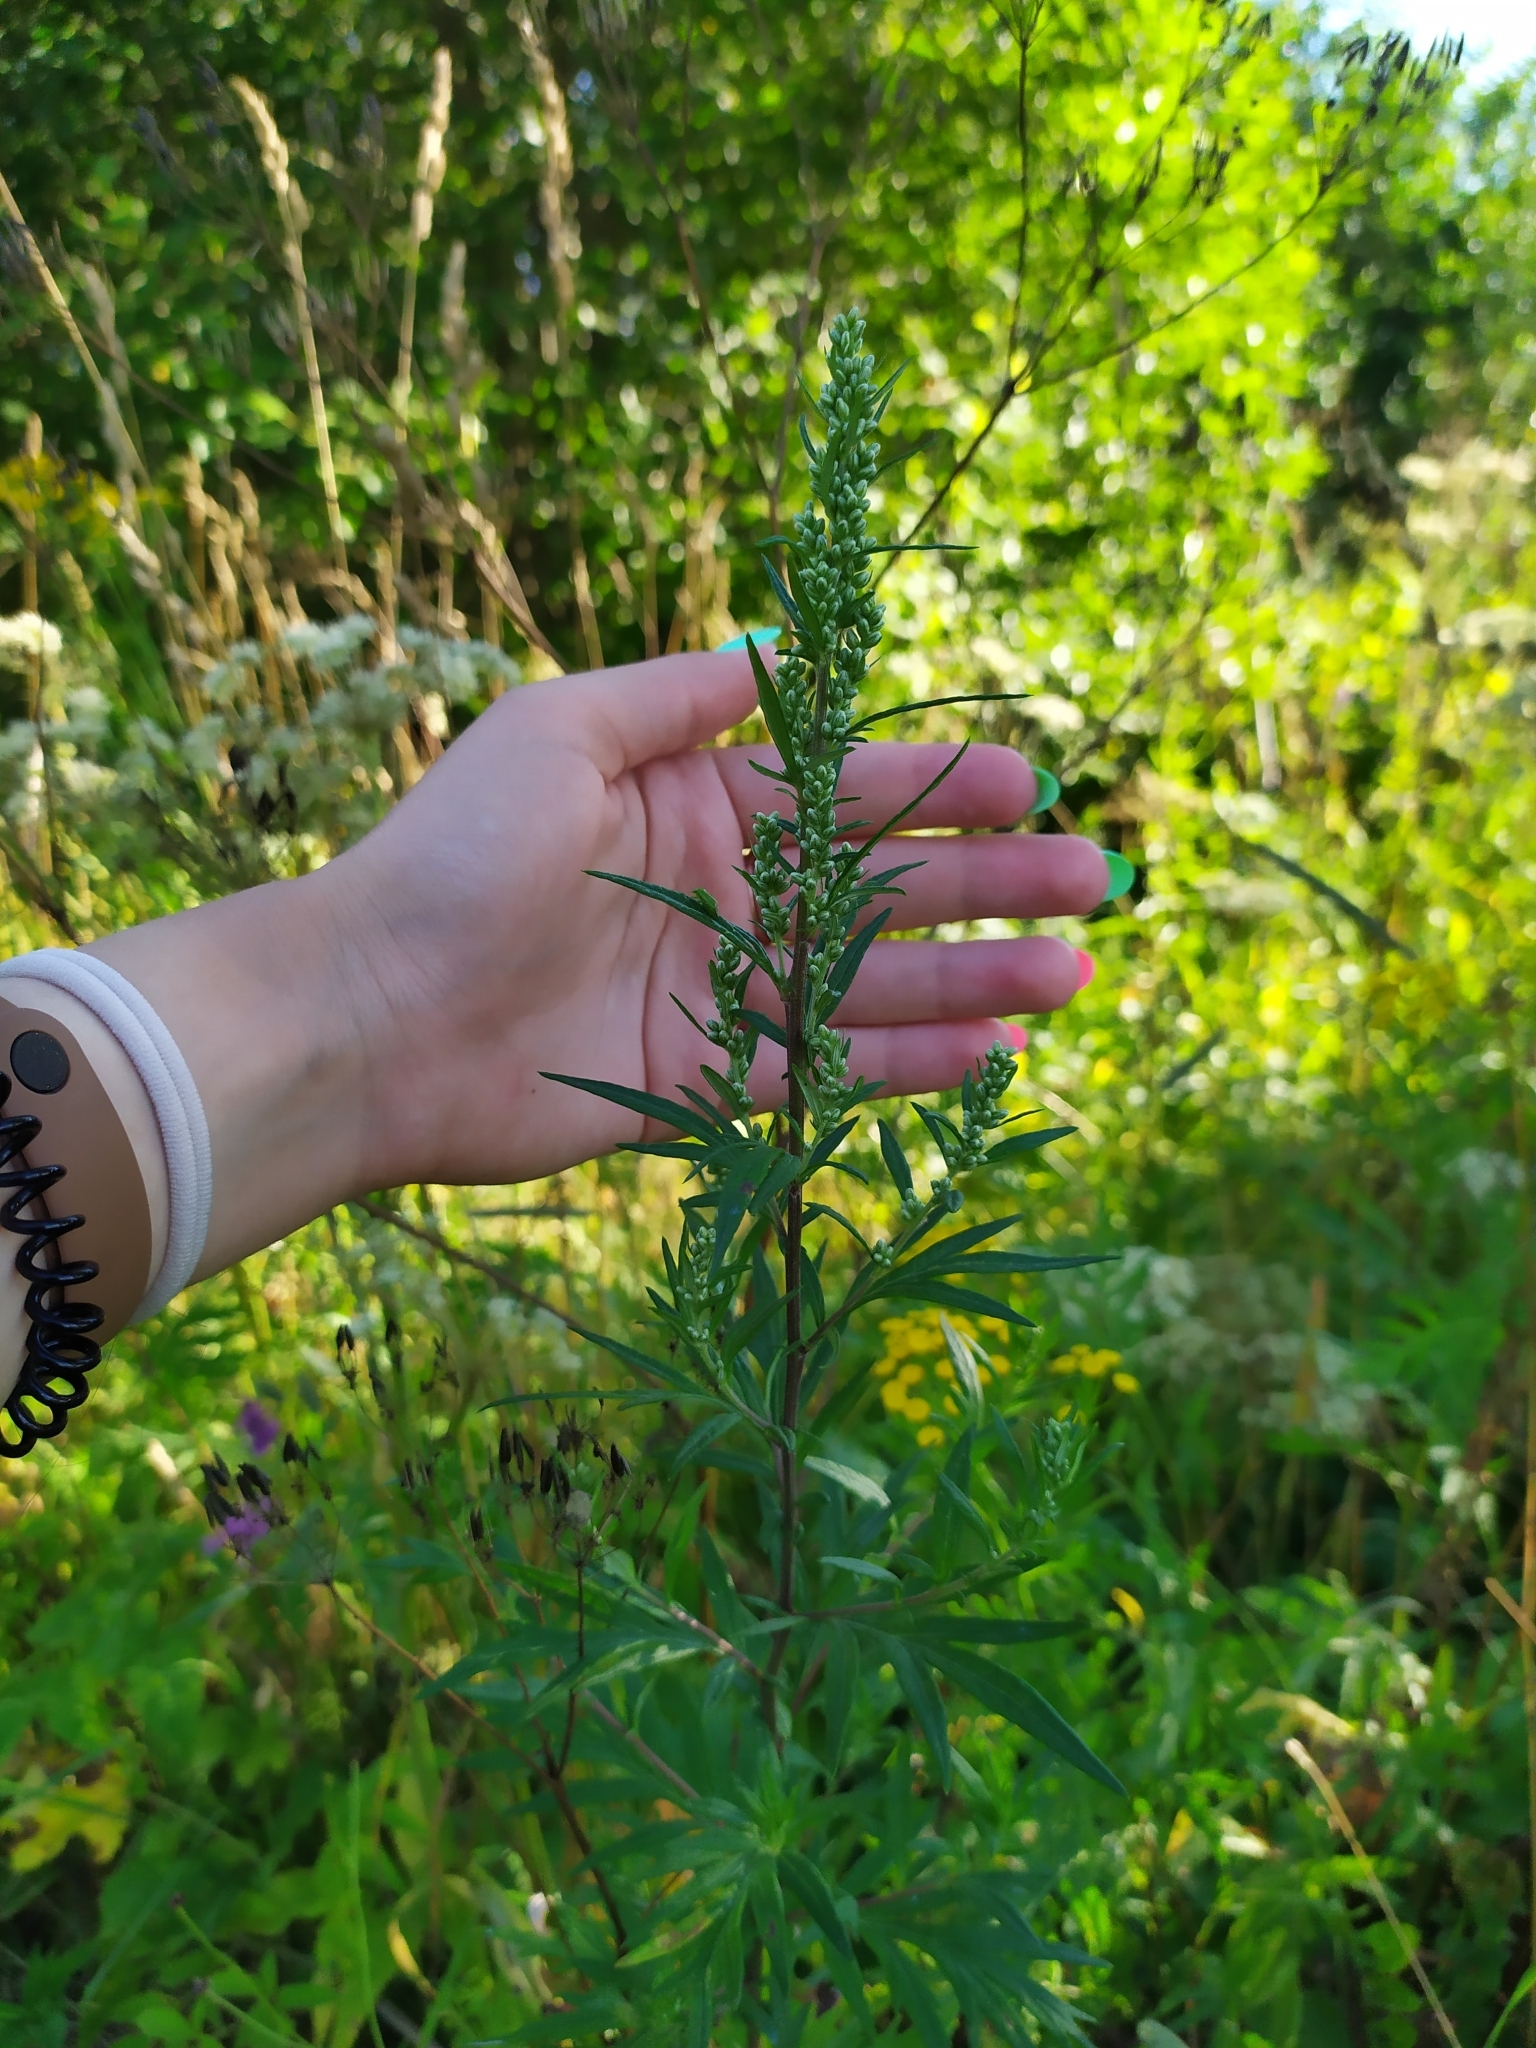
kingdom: Plantae
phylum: Tracheophyta
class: Magnoliopsida
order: Asterales
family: Asteraceae
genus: Artemisia
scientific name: Artemisia vulgaris
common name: Mugwort
